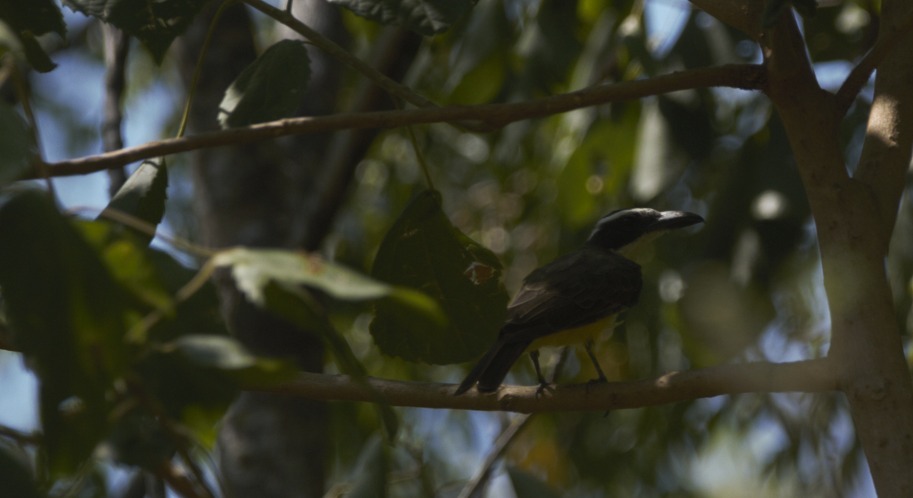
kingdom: Animalia
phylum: Chordata
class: Aves
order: Passeriformes
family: Tyrannidae
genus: Megarynchus
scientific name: Megarynchus pitangua
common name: Boat-billed flycatcher
